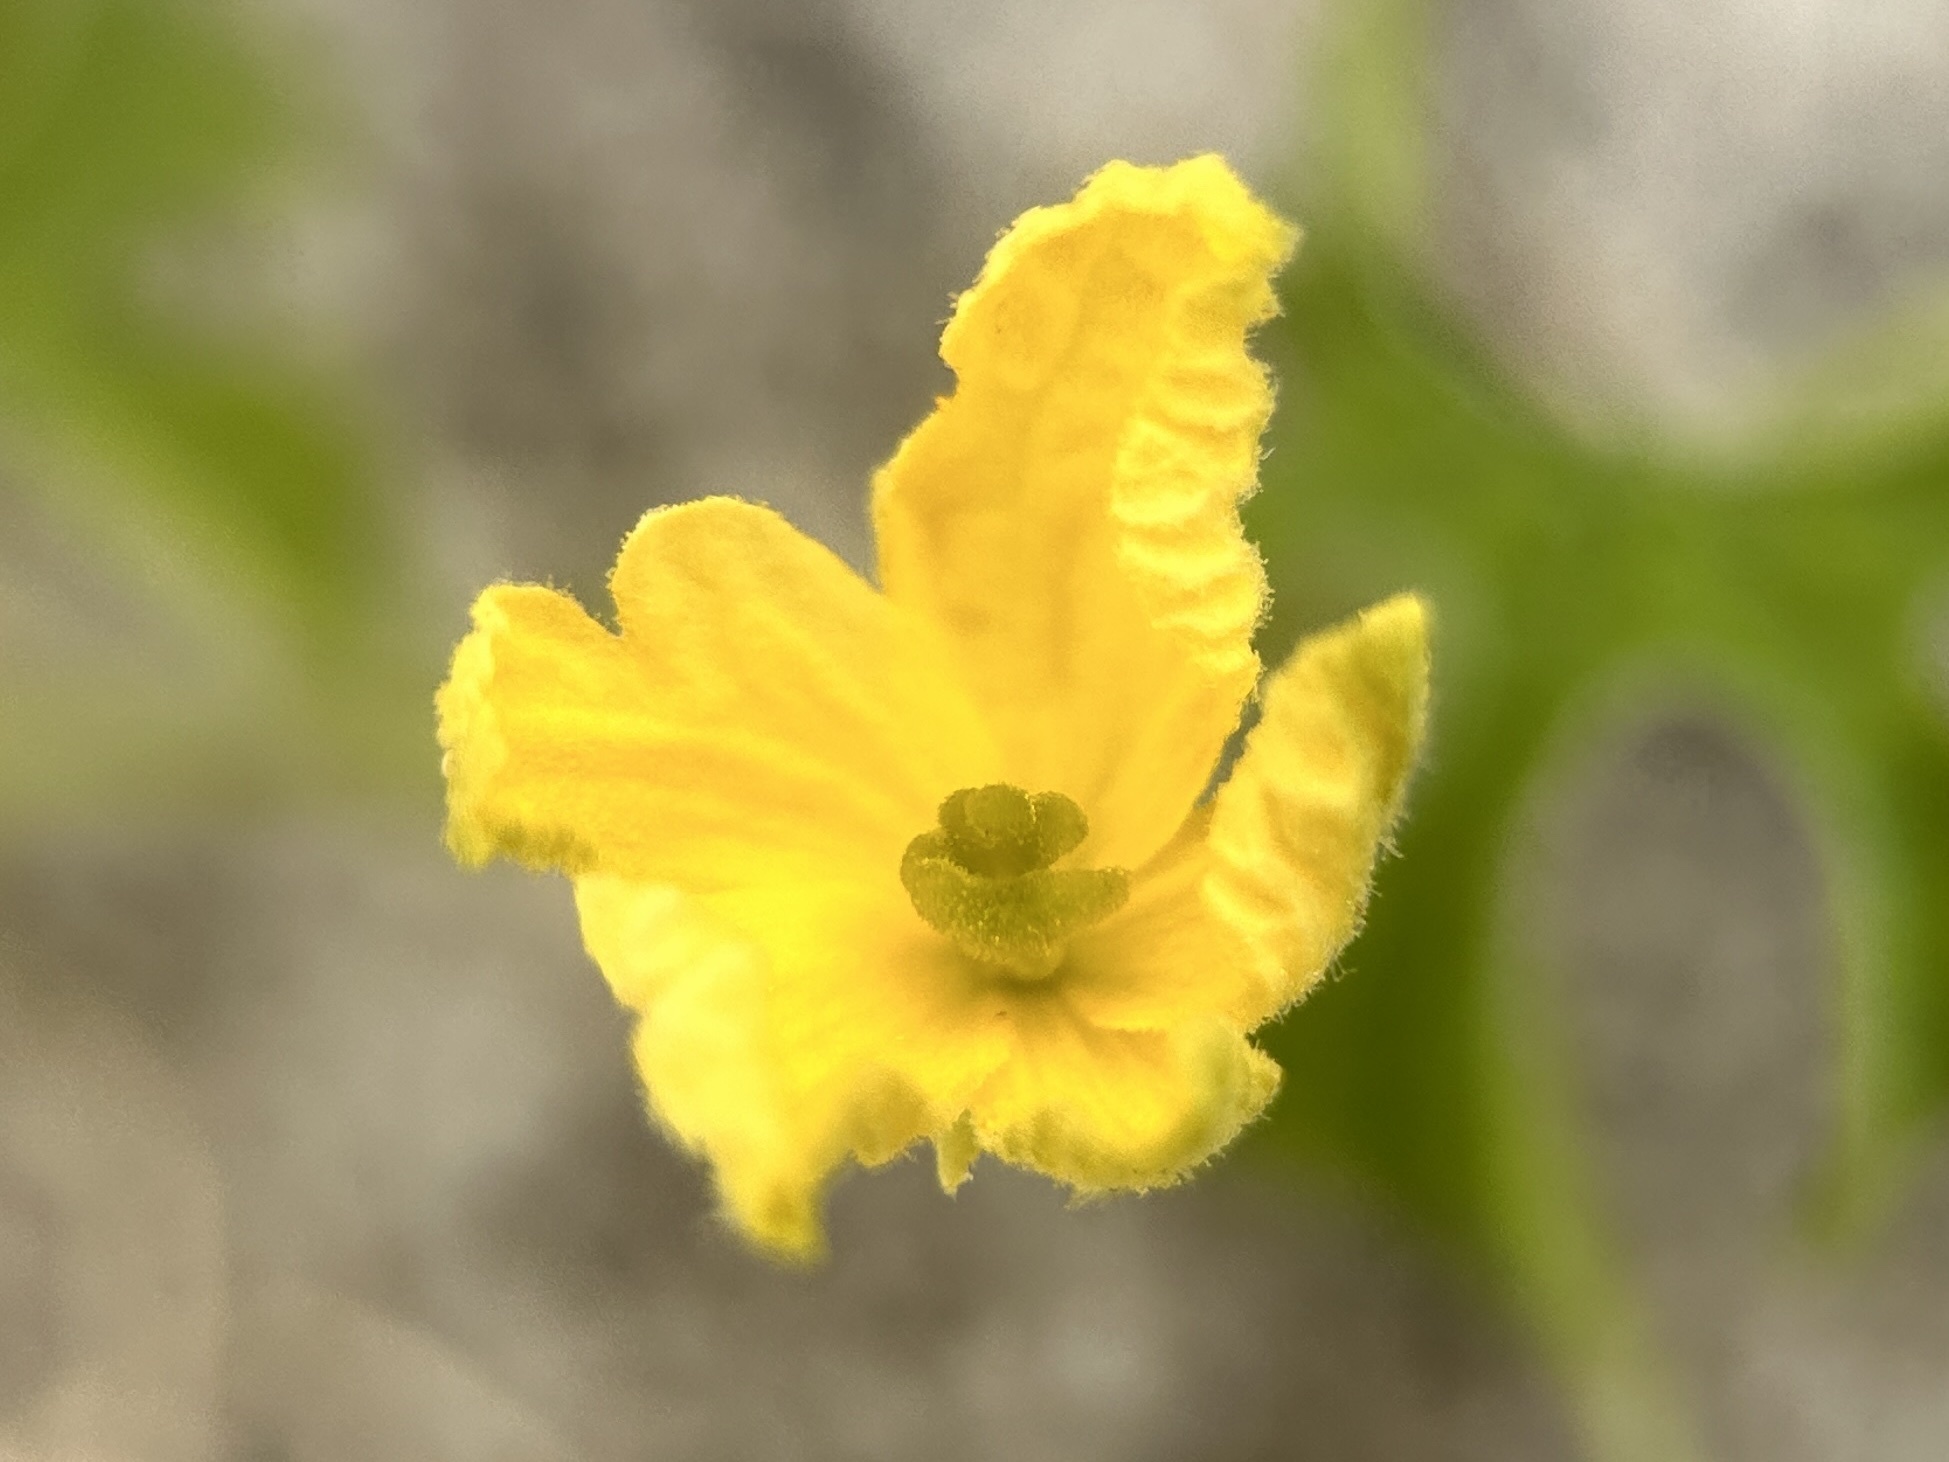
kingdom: Plantae
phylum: Tracheophyta
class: Magnoliopsida
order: Cucurbitales
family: Cucurbitaceae
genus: Momordica
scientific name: Momordica charantia
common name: Balsampear
